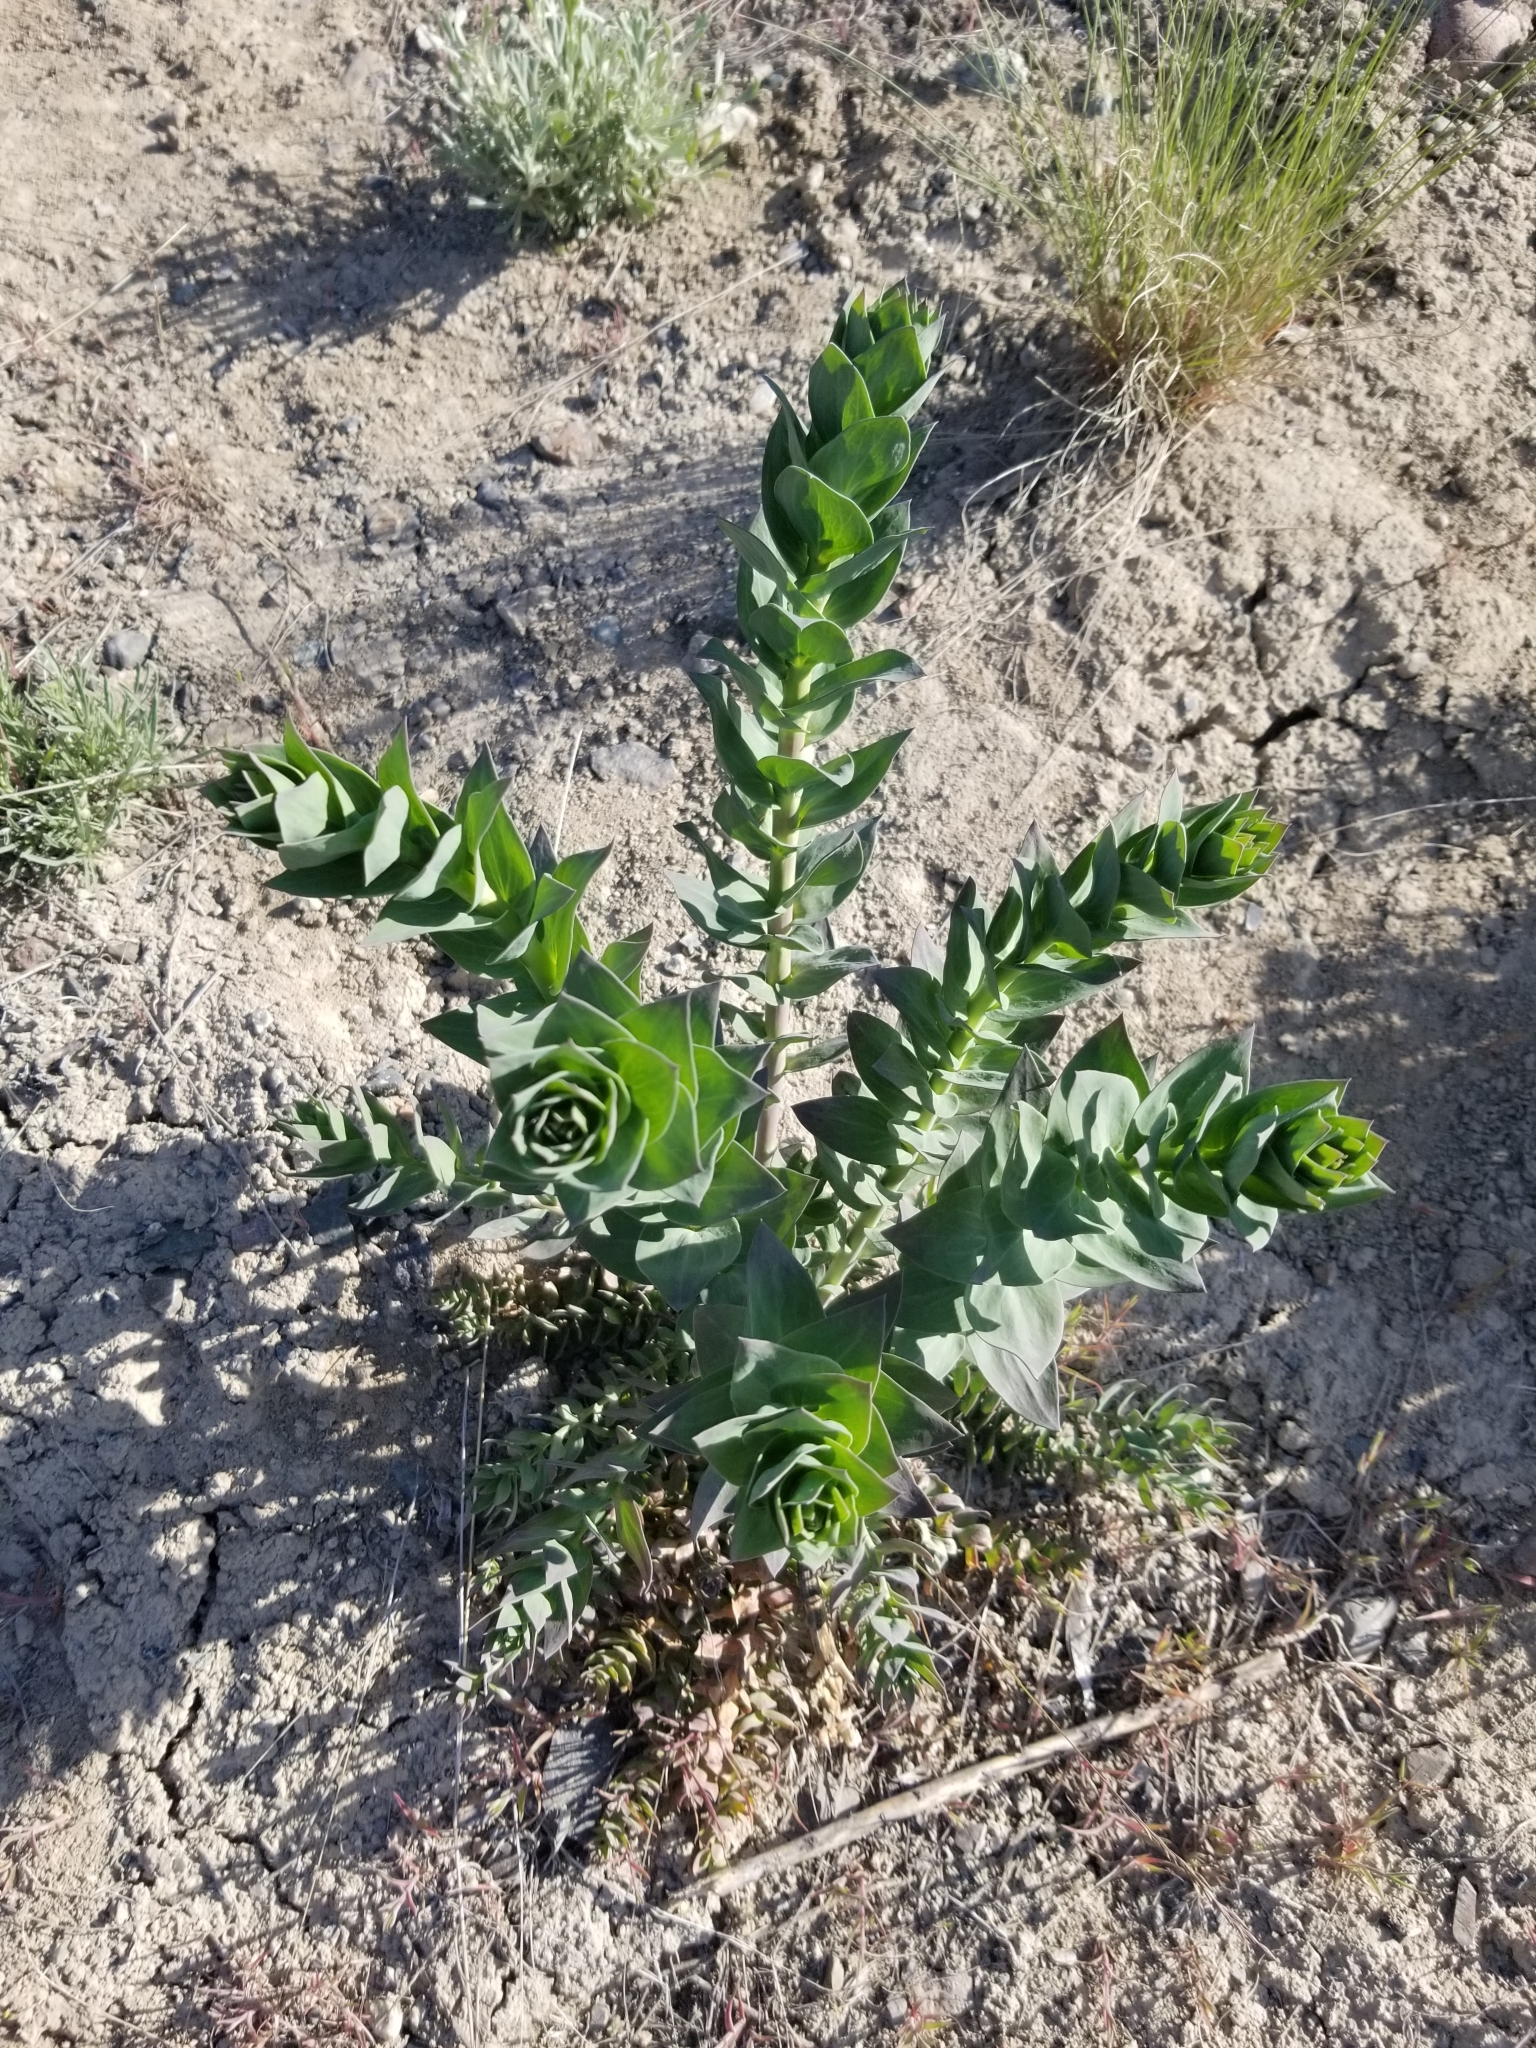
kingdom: Plantae
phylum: Tracheophyta
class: Magnoliopsida
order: Lamiales
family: Plantaginaceae
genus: Linaria
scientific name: Linaria dalmatica
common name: Dalmatian toadflax
